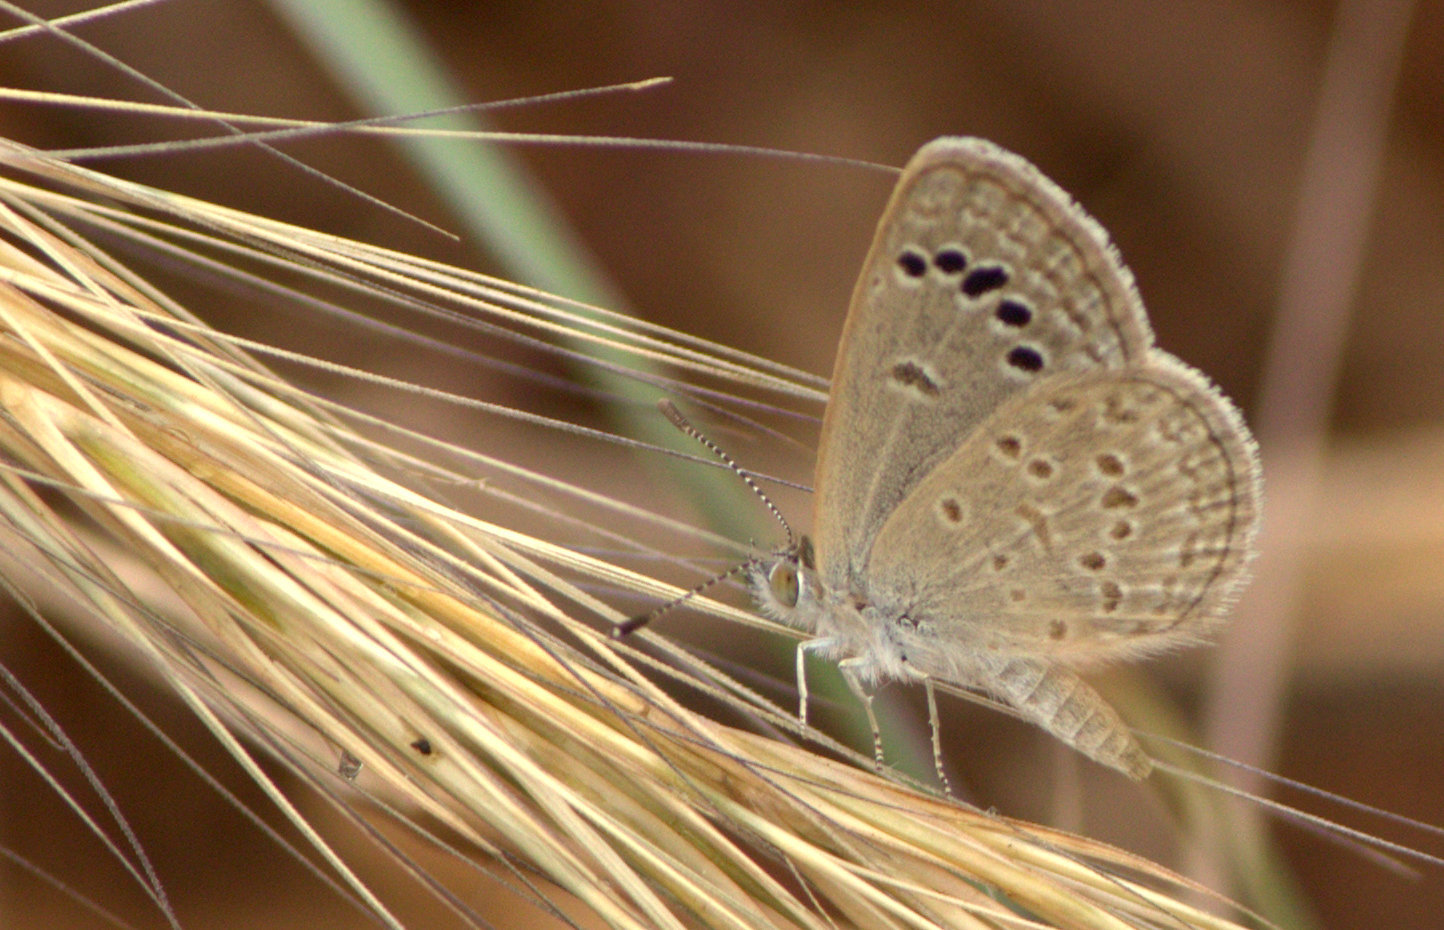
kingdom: Animalia
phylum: Arthropoda
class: Insecta
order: Lepidoptera
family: Lycaenidae
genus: Zizina
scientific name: Zizina otis
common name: Lesser grass blue
